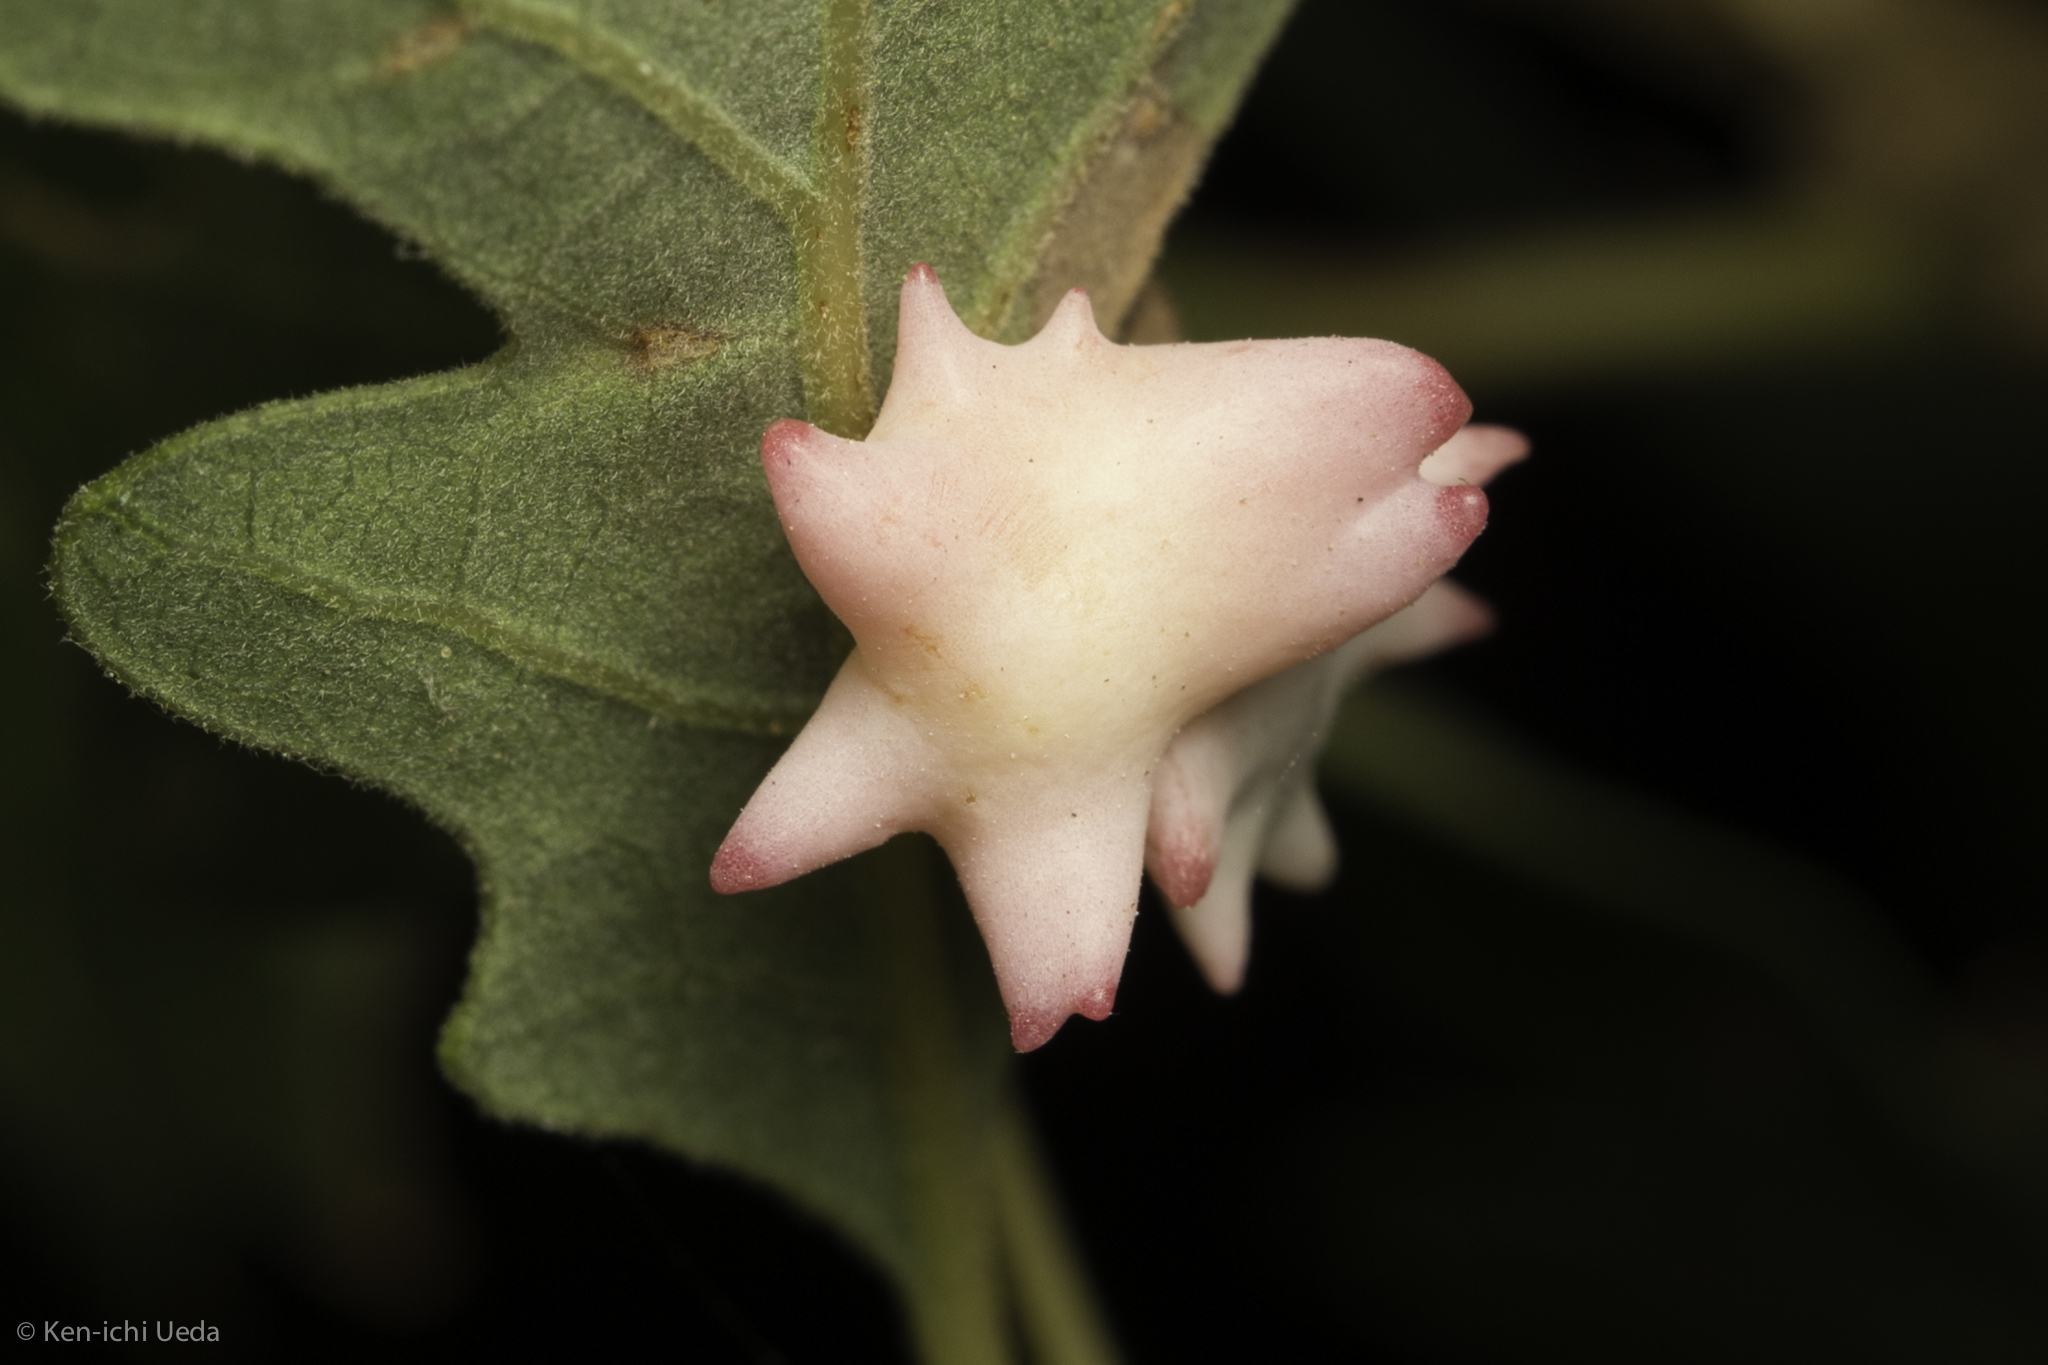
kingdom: Animalia
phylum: Arthropoda
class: Insecta
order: Hymenoptera
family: Cynipidae
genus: Cynips
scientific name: Cynips douglasi
